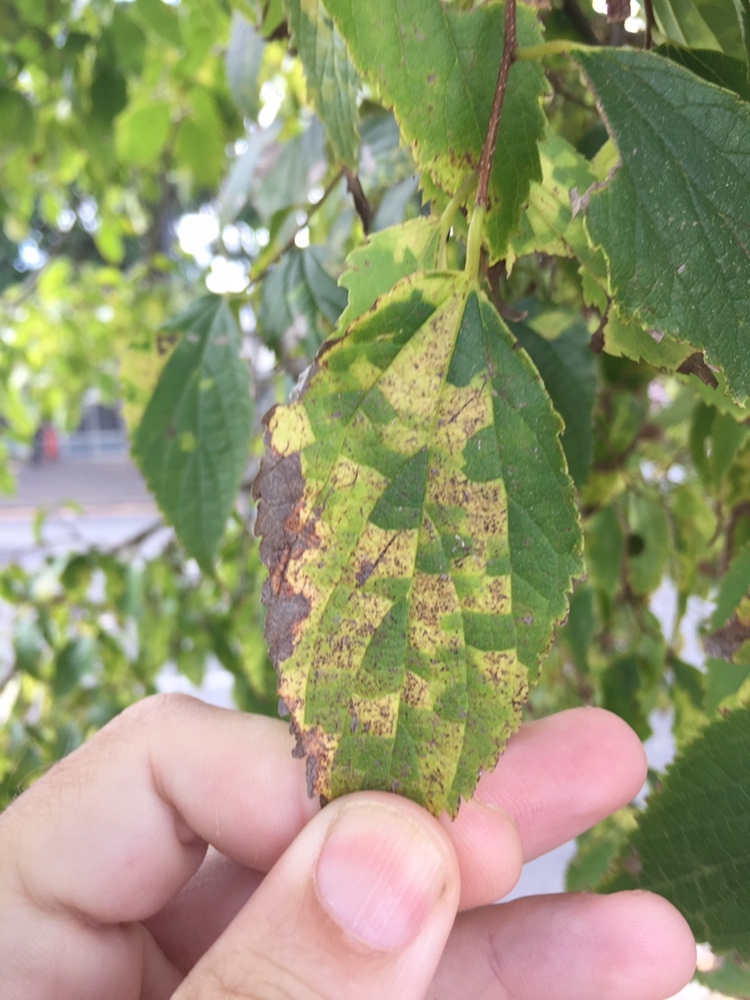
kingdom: Viruses
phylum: Kitrinoviricota
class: Alsuviricetes
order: Martellivirales
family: Closteroviridae
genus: Ampelovirus
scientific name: Ampelovirus
